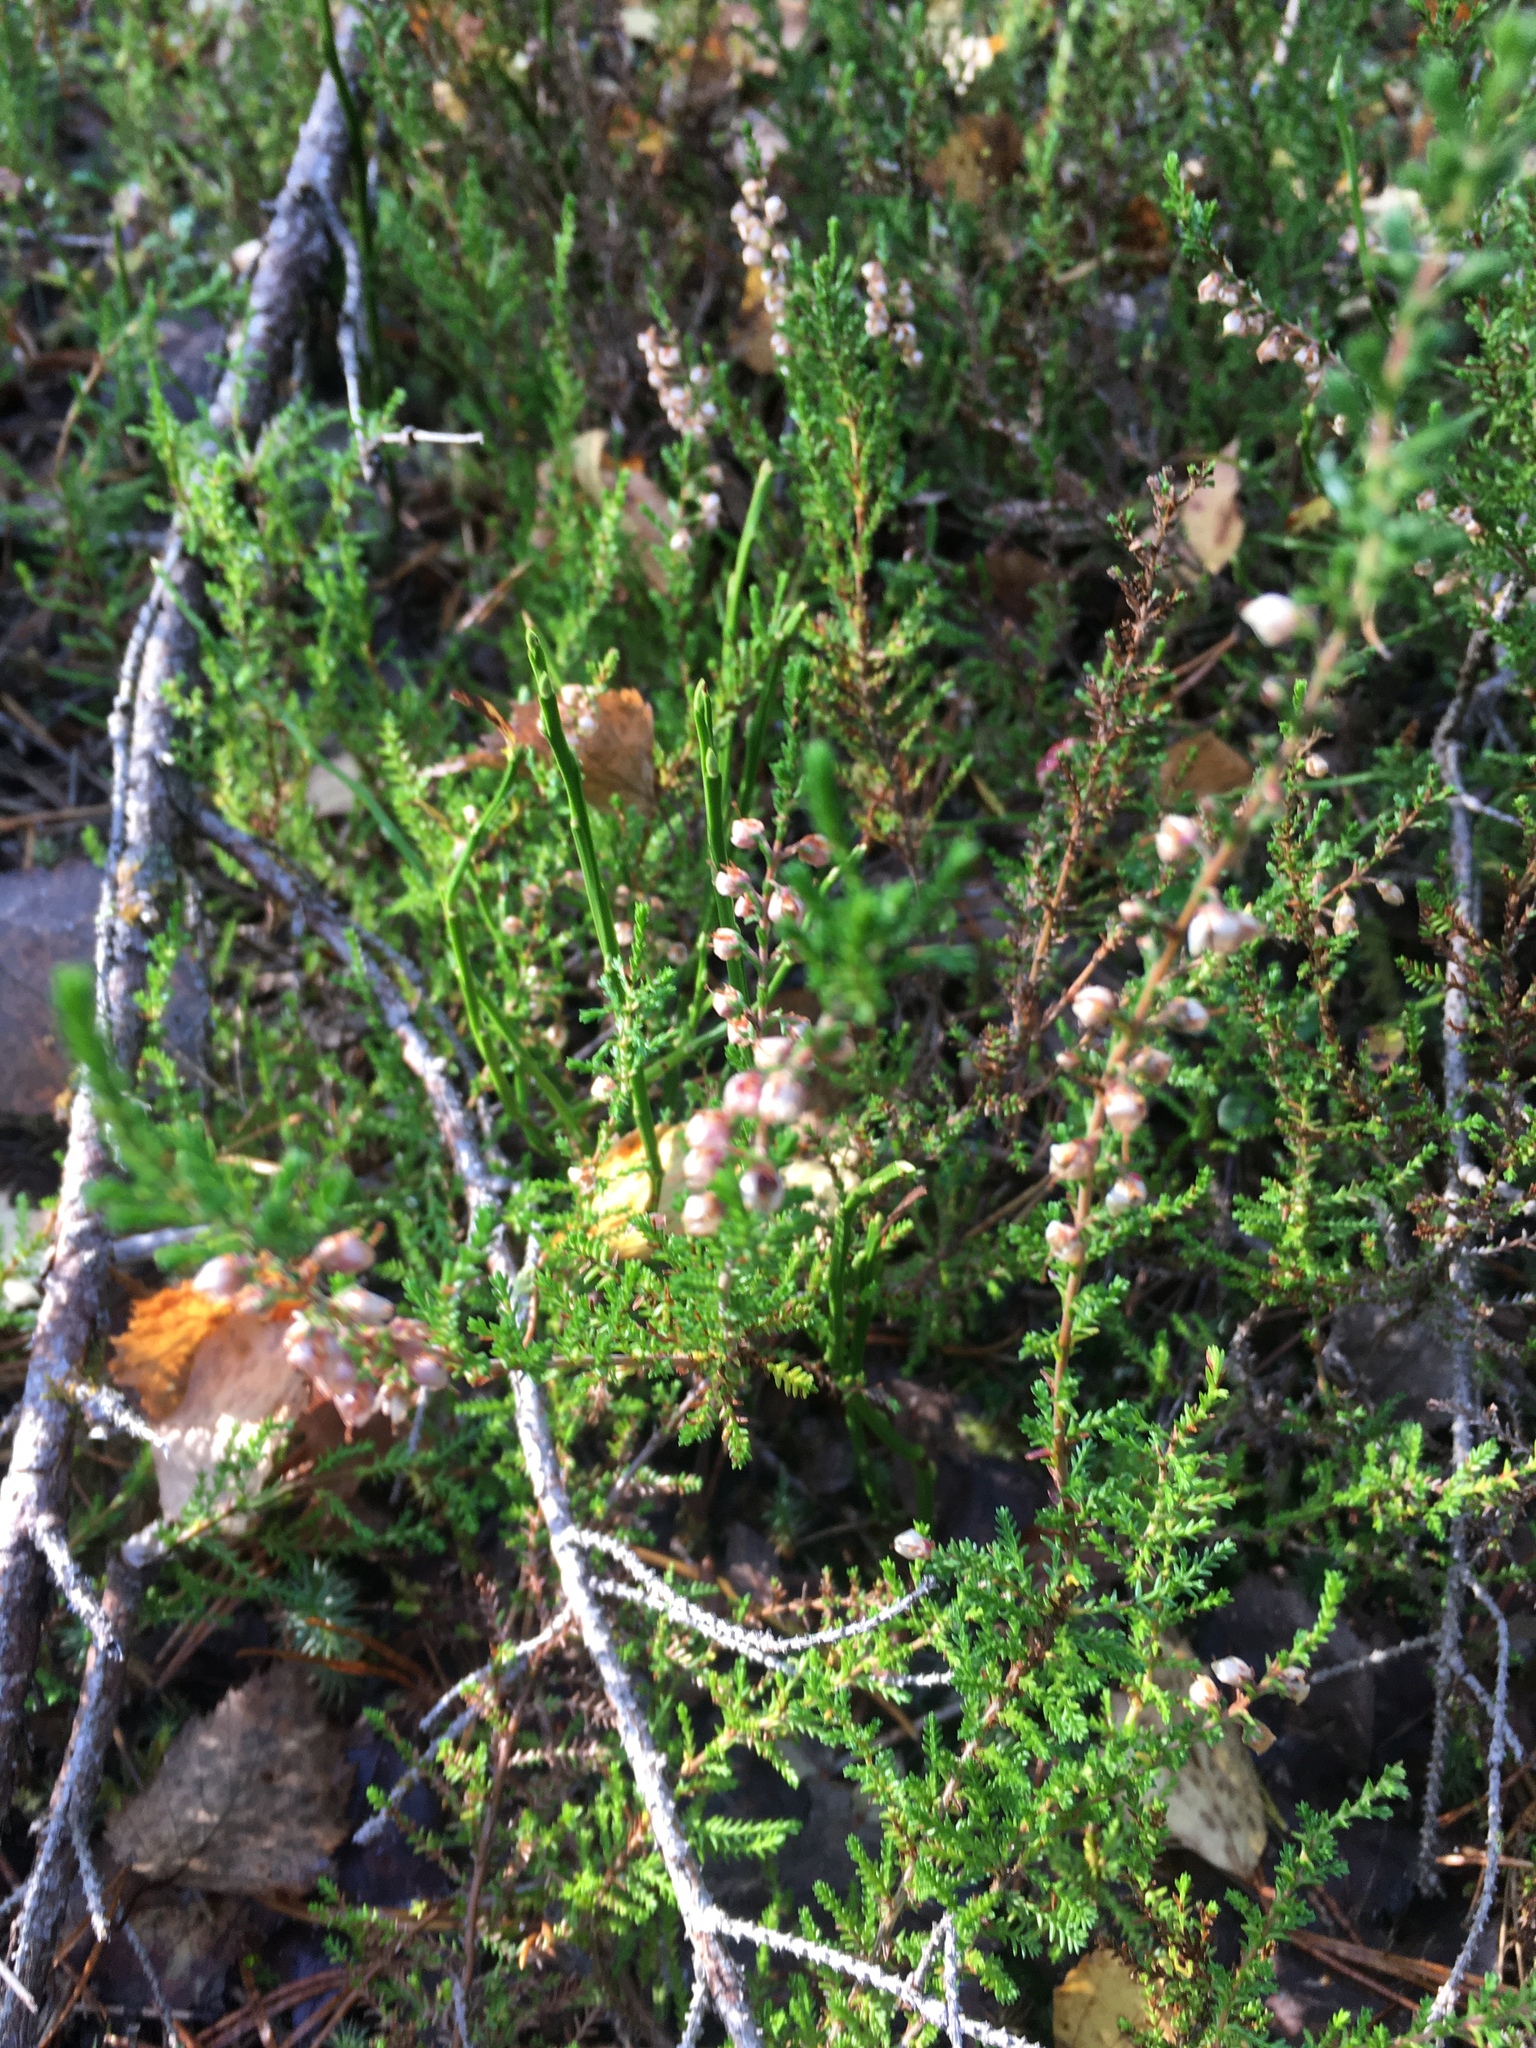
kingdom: Plantae
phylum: Tracheophyta
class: Magnoliopsida
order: Ericales
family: Ericaceae
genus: Calluna
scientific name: Calluna vulgaris
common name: Heather
